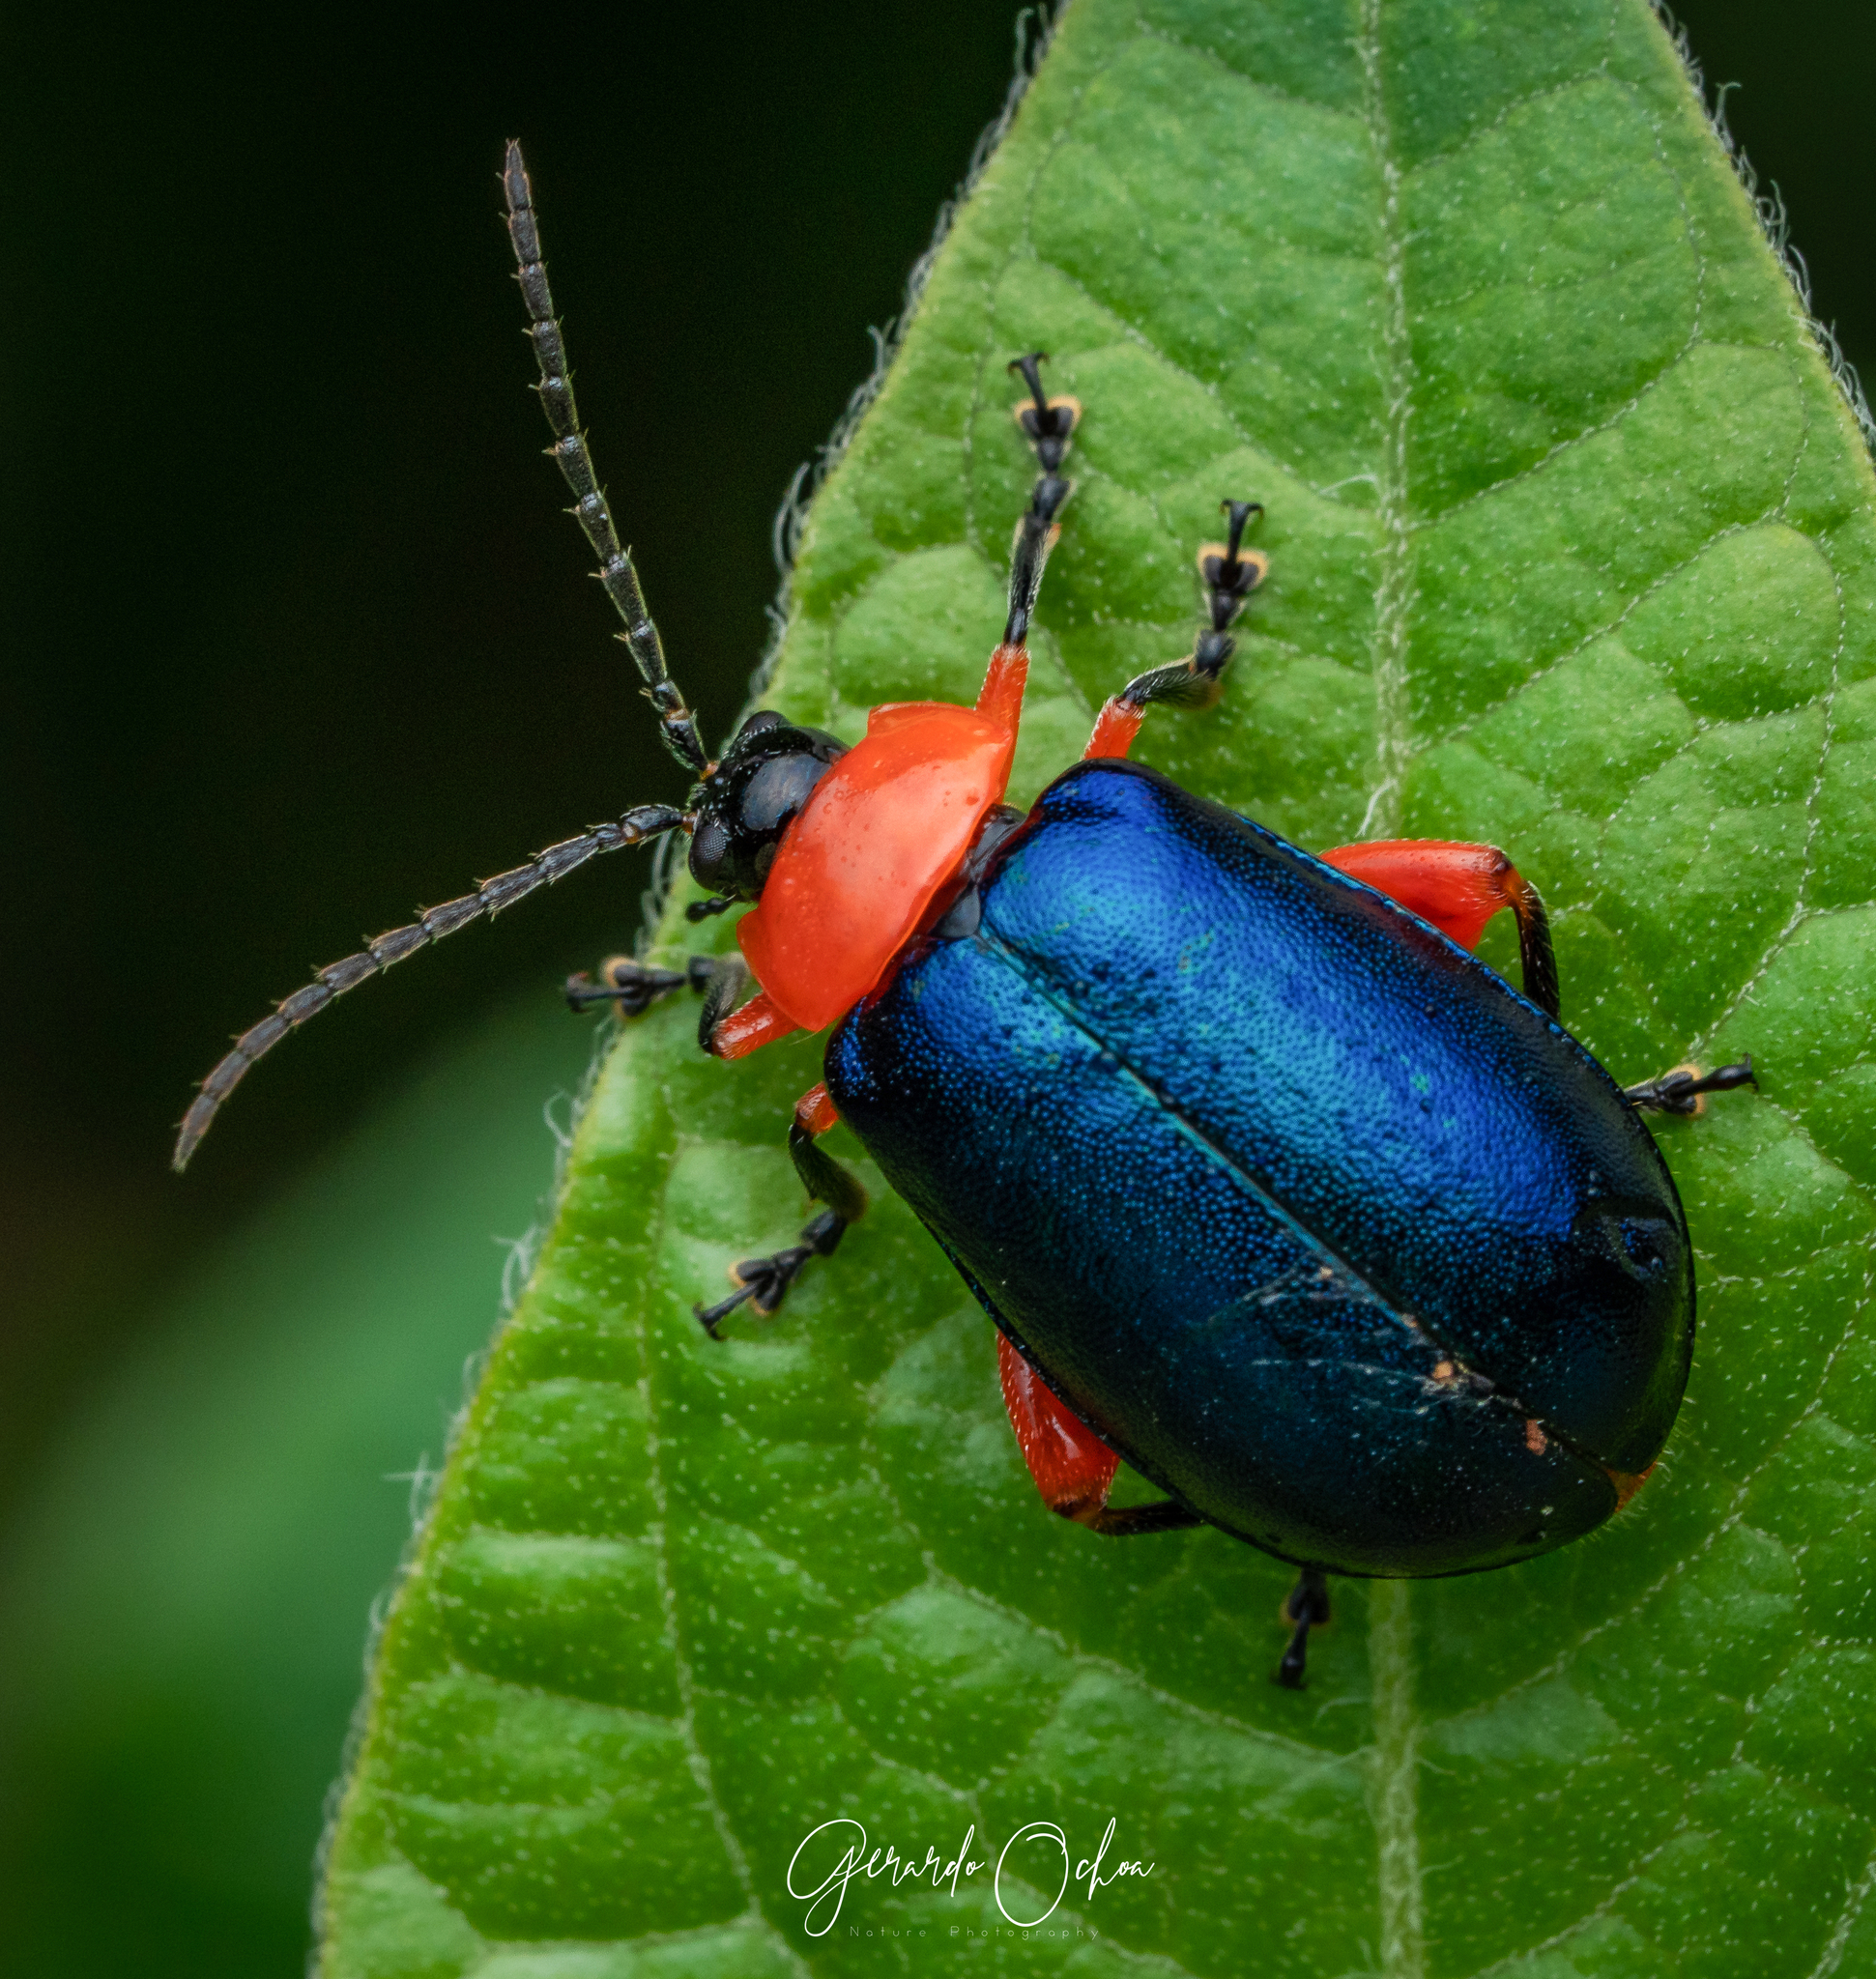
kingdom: Animalia
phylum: Arthropoda
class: Insecta
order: Coleoptera
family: Chrysomelidae
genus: Asphaera
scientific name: Asphaera abdominalis
